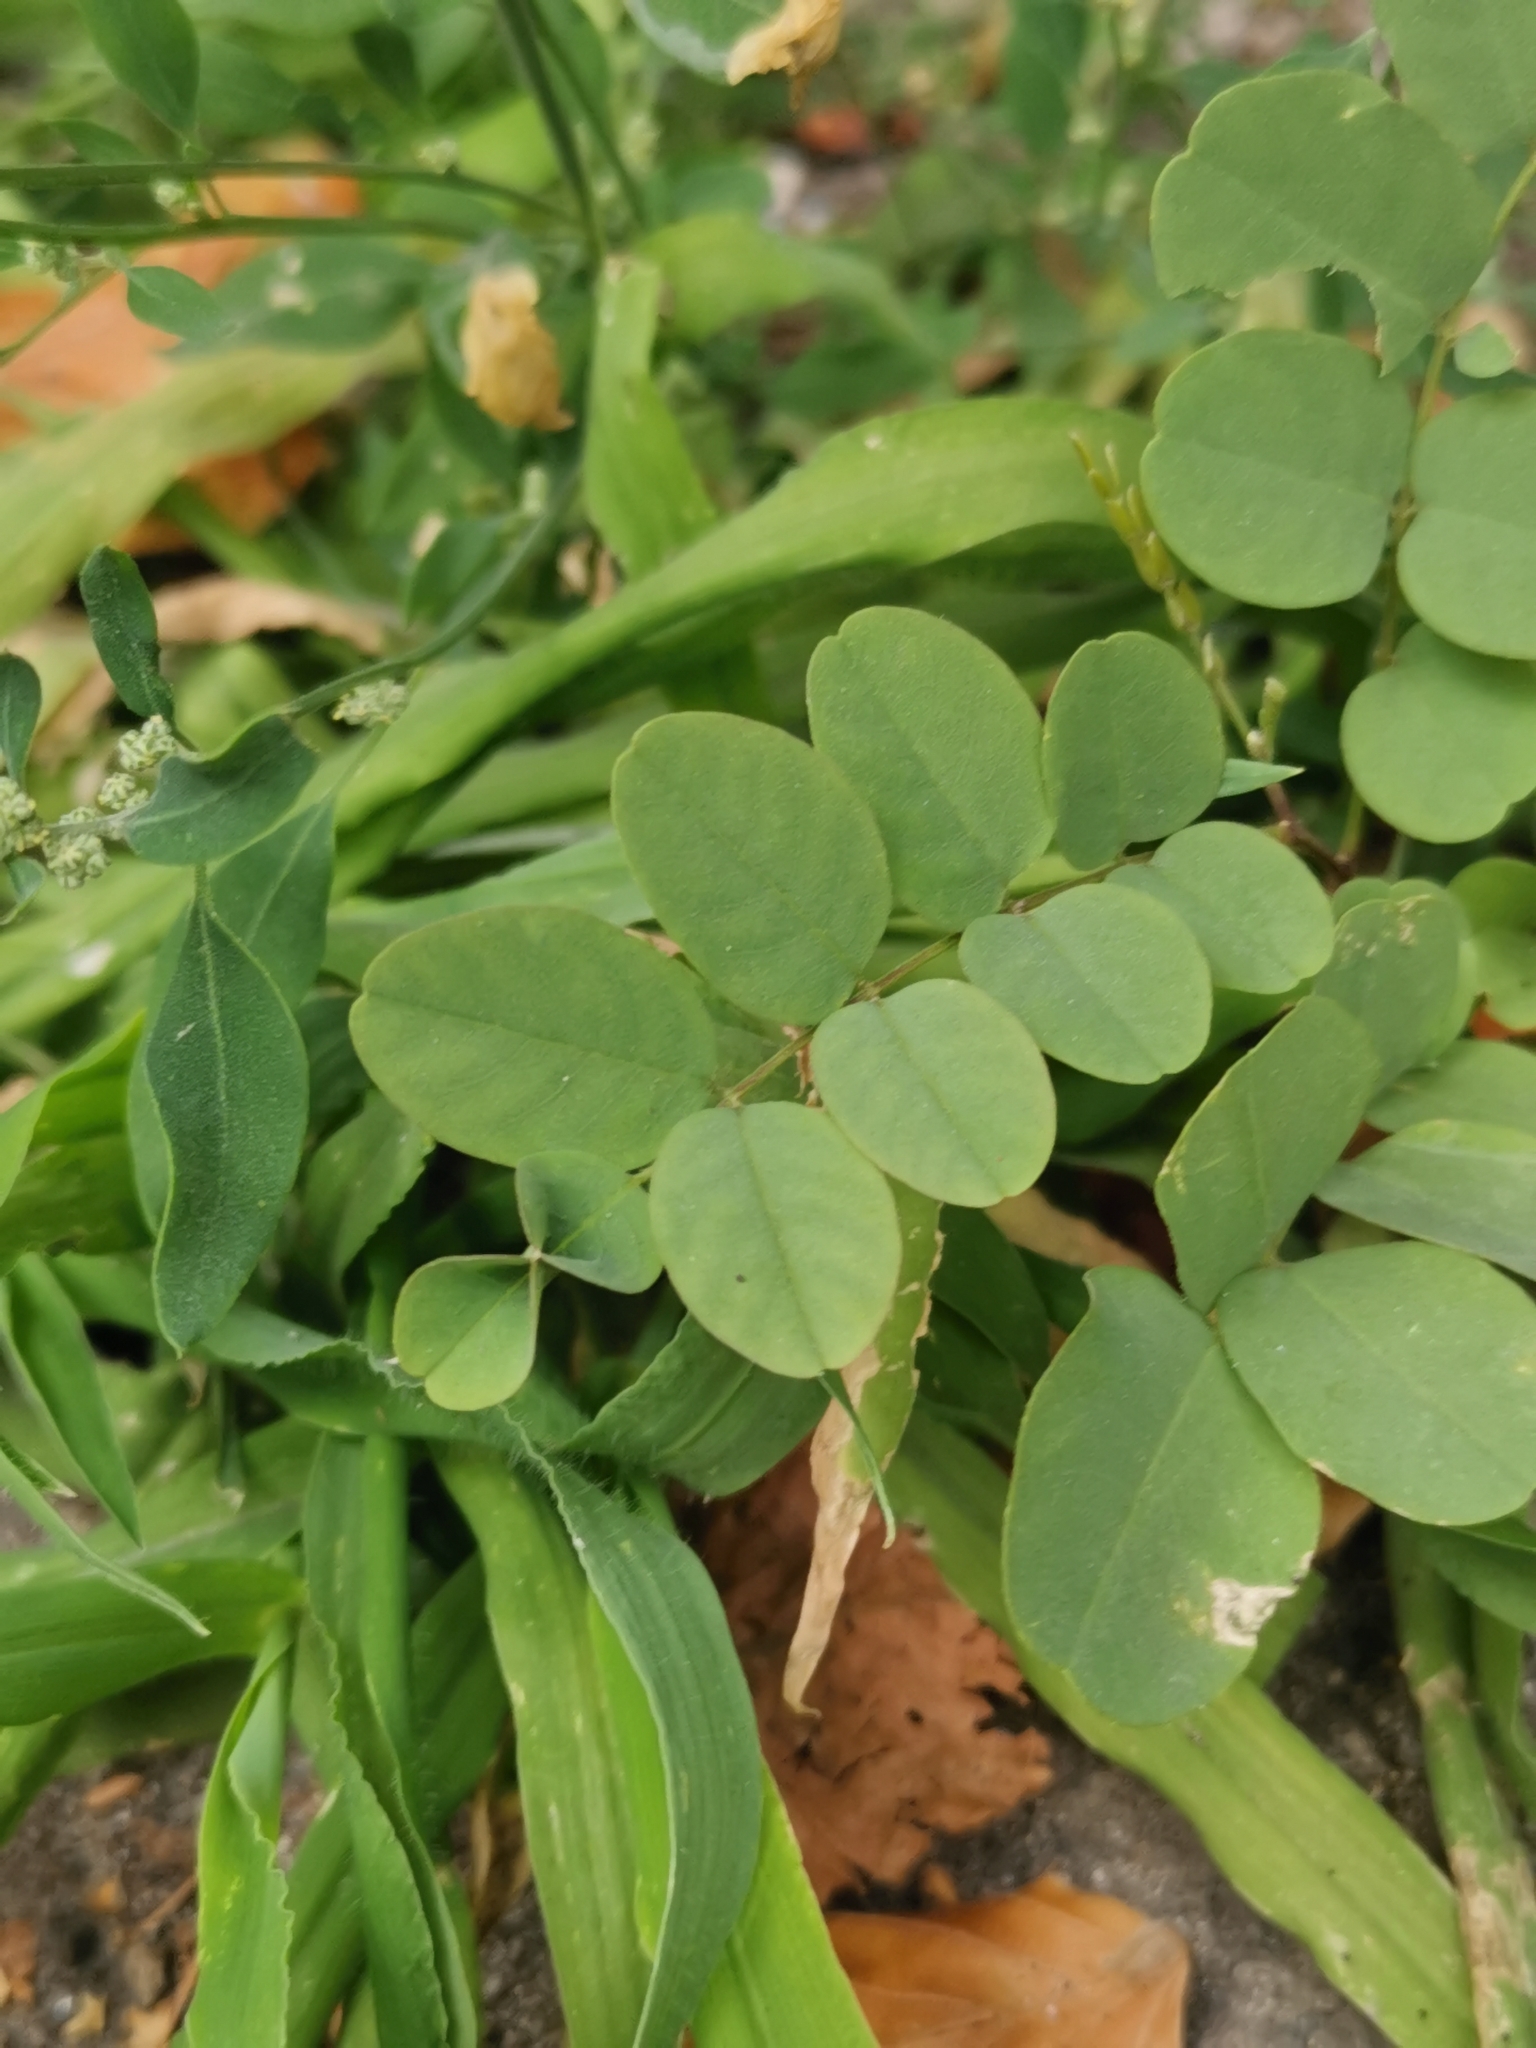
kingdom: Plantae
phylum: Tracheophyta
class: Magnoliopsida
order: Fabales
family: Fabaceae
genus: Robinia
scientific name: Robinia pseudoacacia
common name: Black locust
